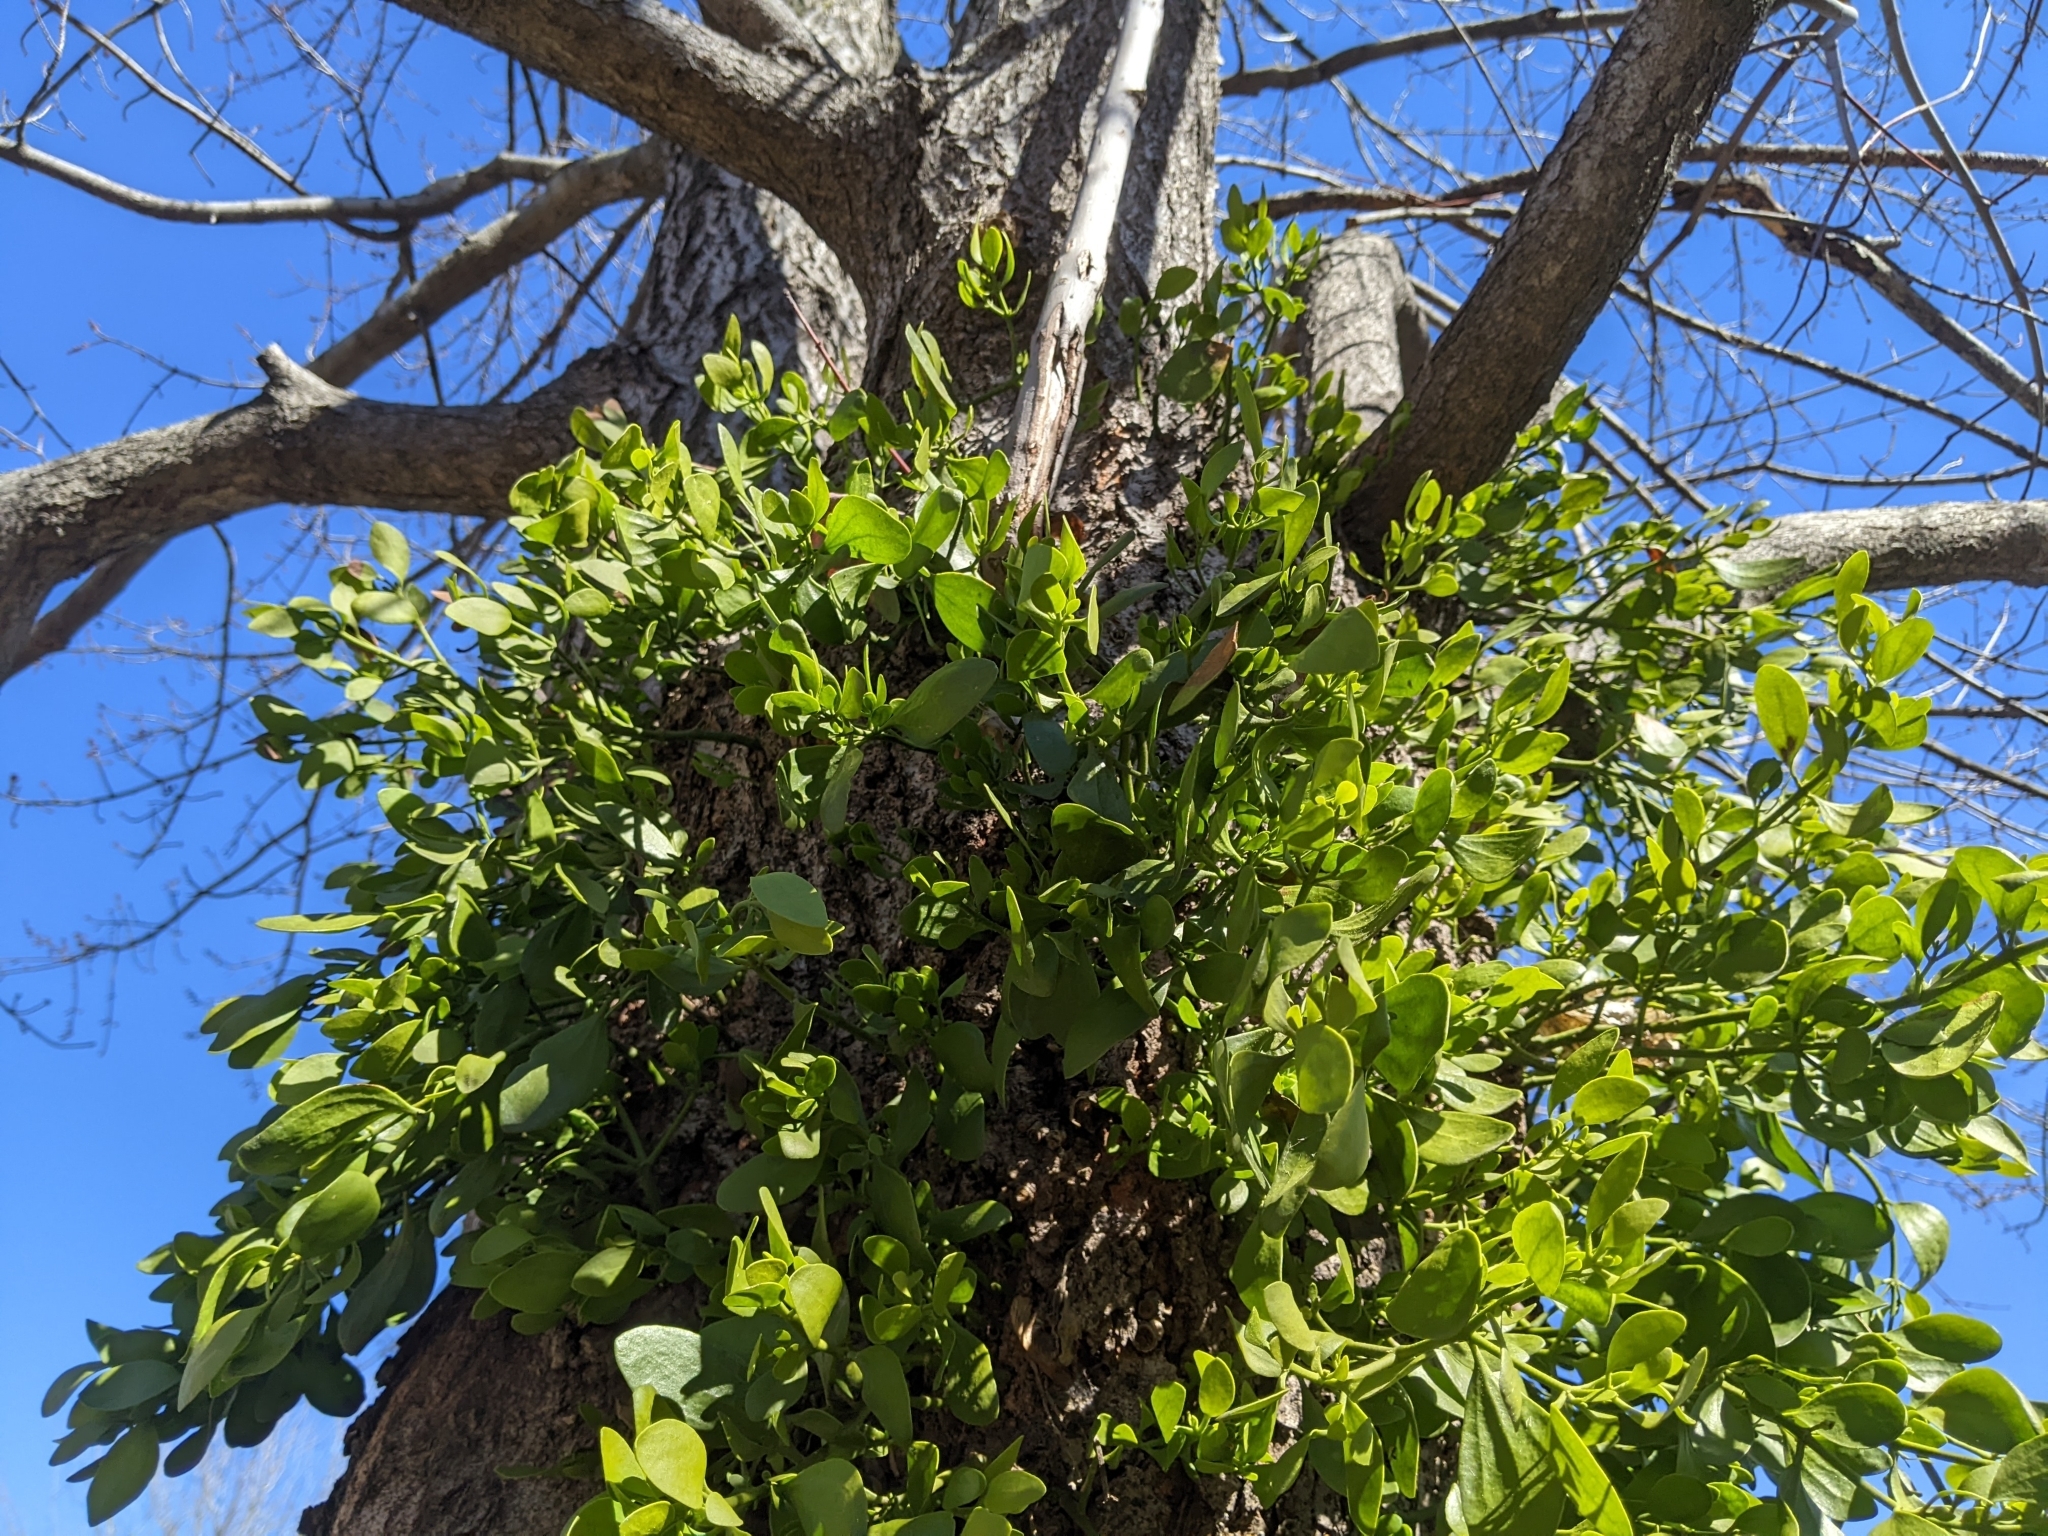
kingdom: Plantae
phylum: Tracheophyta
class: Magnoliopsida
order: Santalales
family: Viscaceae
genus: Phoradendron
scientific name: Phoradendron leucarpum
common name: Pacific mistletoe
